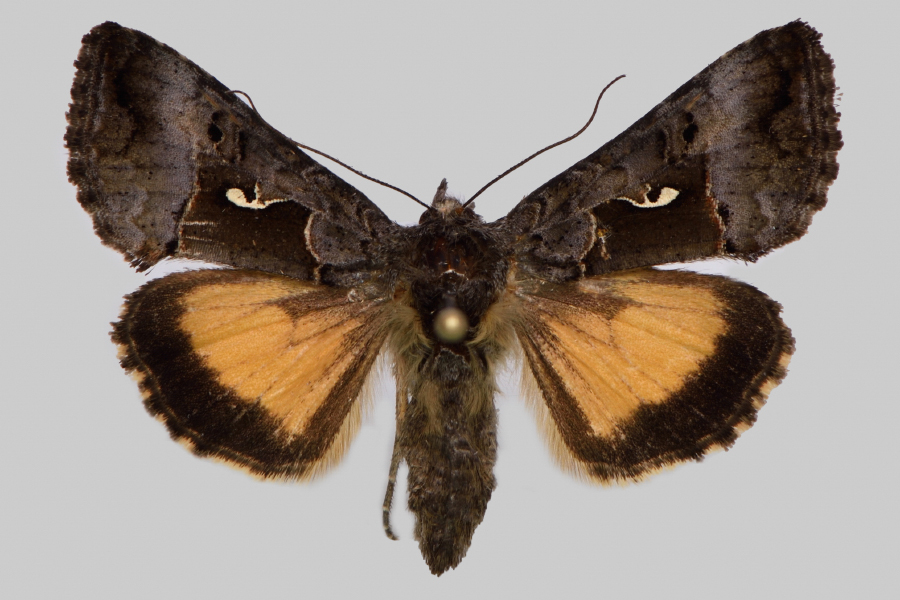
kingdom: Animalia
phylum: Arthropoda
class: Insecta
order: Lepidoptera
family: Noctuidae
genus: Syngrapha
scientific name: Syngrapha microgamma
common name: Small gamma looper moth
